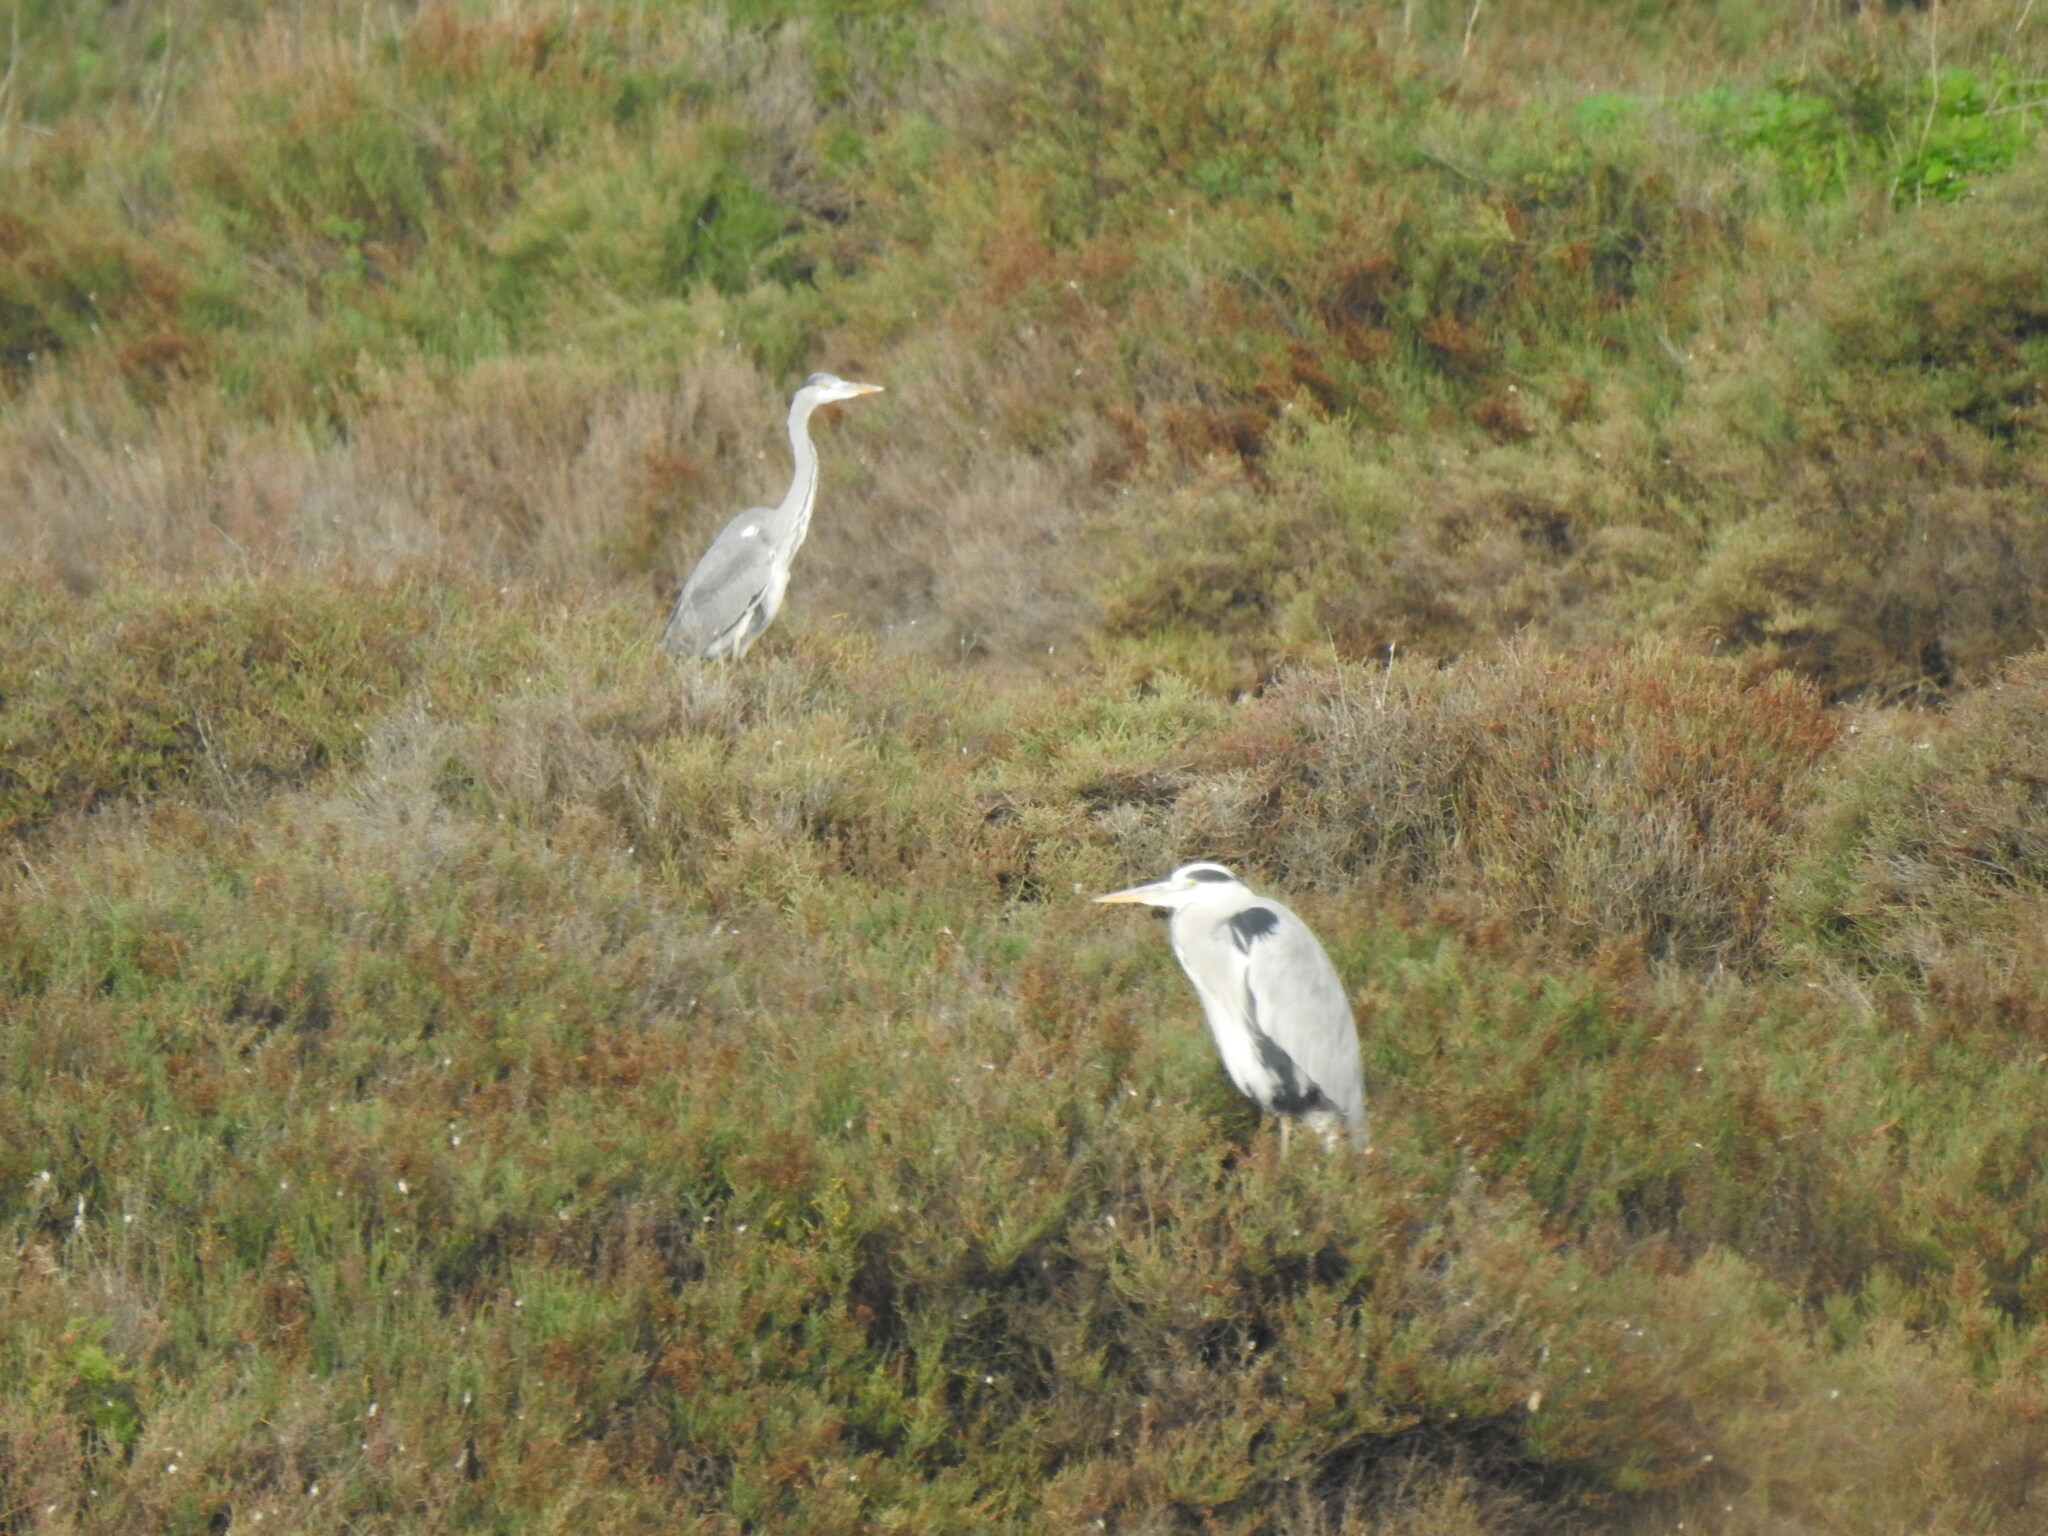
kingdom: Animalia
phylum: Chordata
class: Aves
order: Pelecaniformes
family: Ardeidae
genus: Ardea
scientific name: Ardea cinerea
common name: Grey heron
